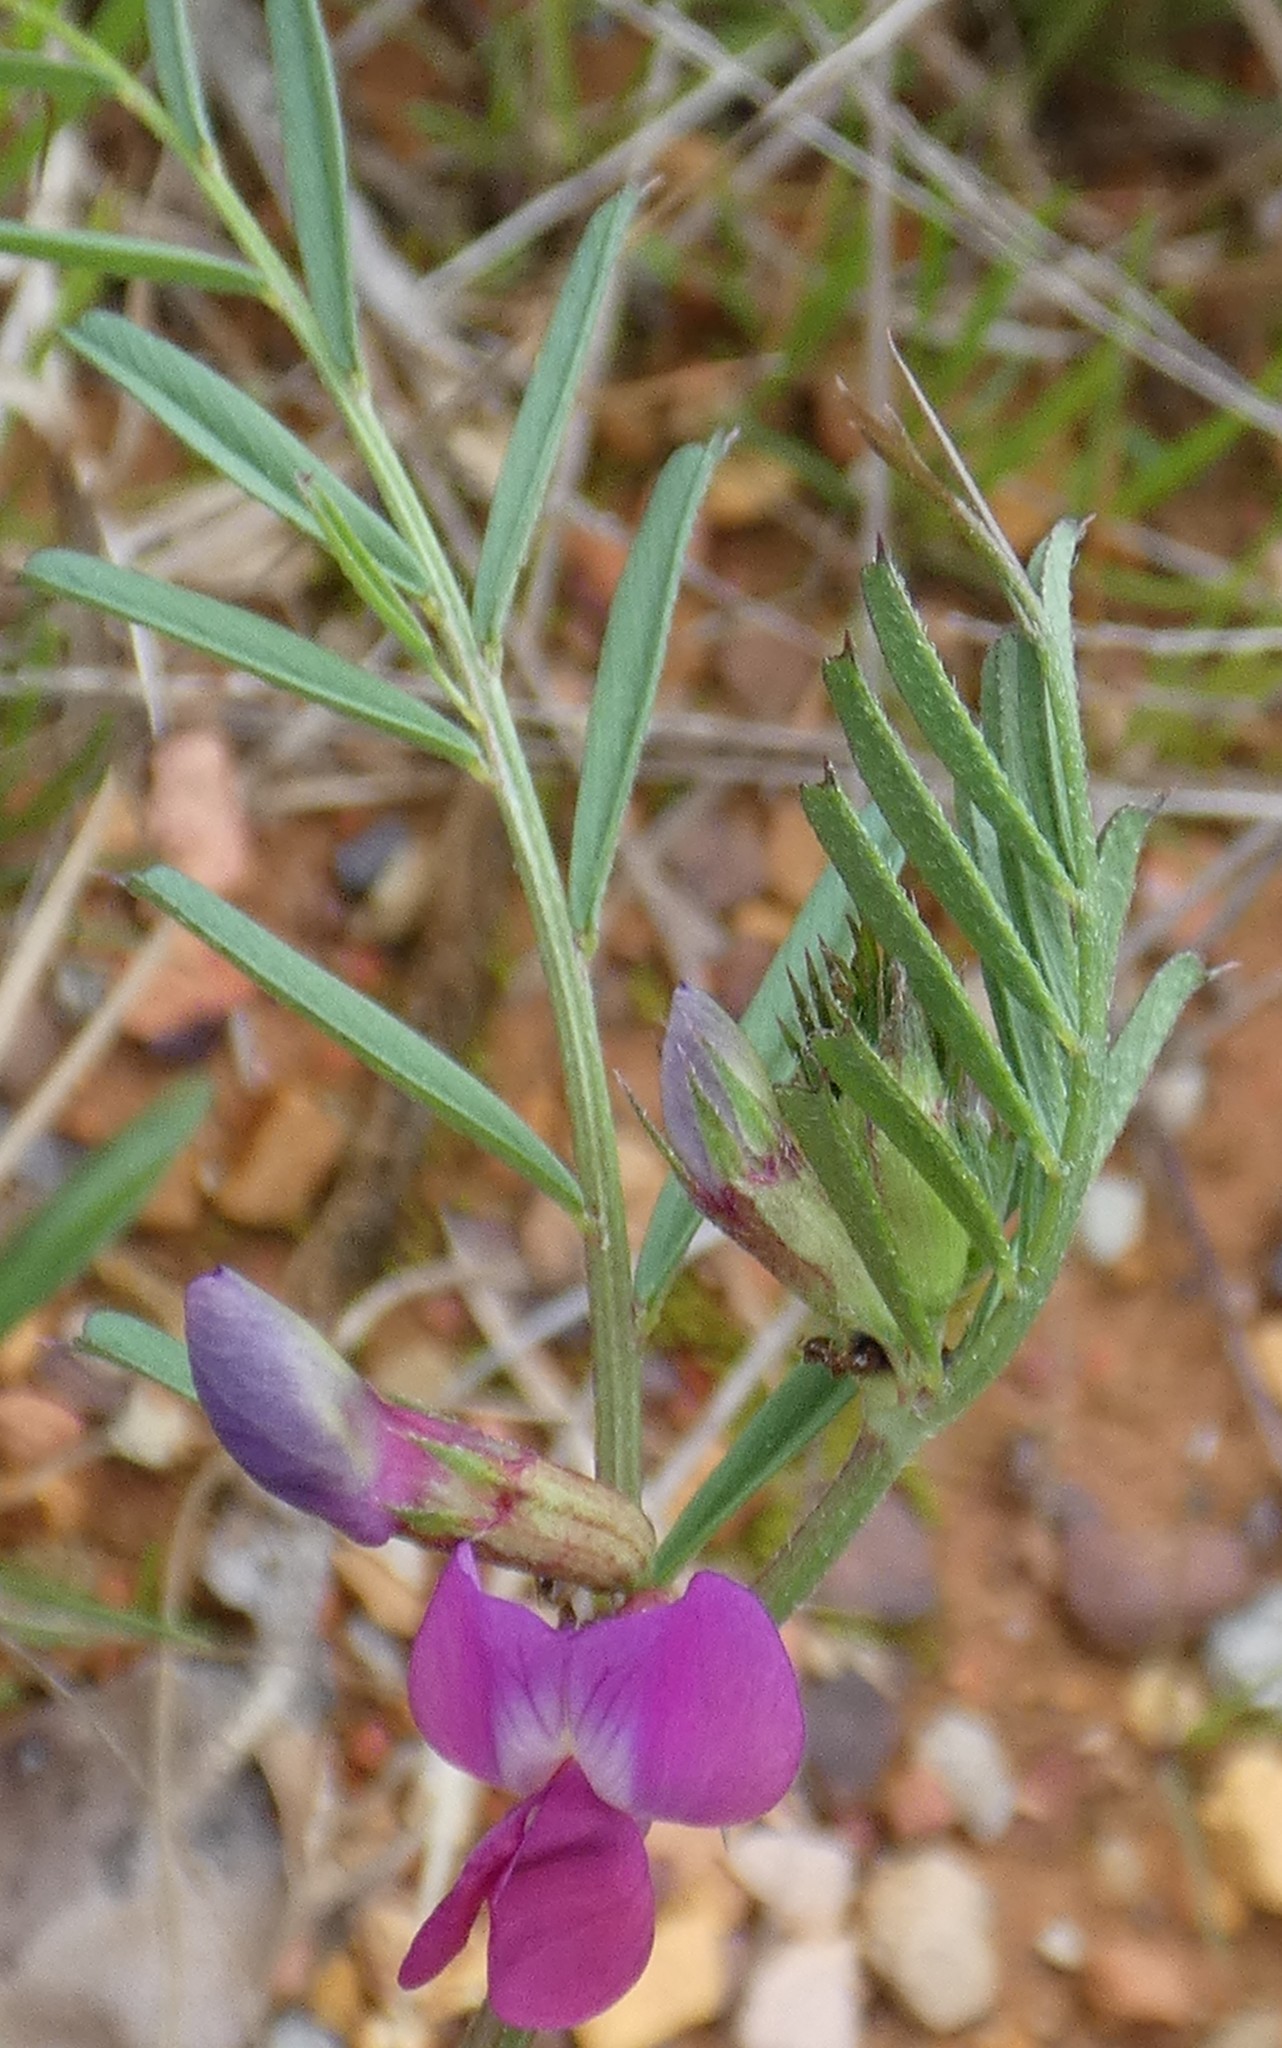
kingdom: Plantae
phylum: Tracheophyta
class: Magnoliopsida
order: Fabales
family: Fabaceae
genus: Vicia
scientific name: Vicia sativa
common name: Garden vetch
